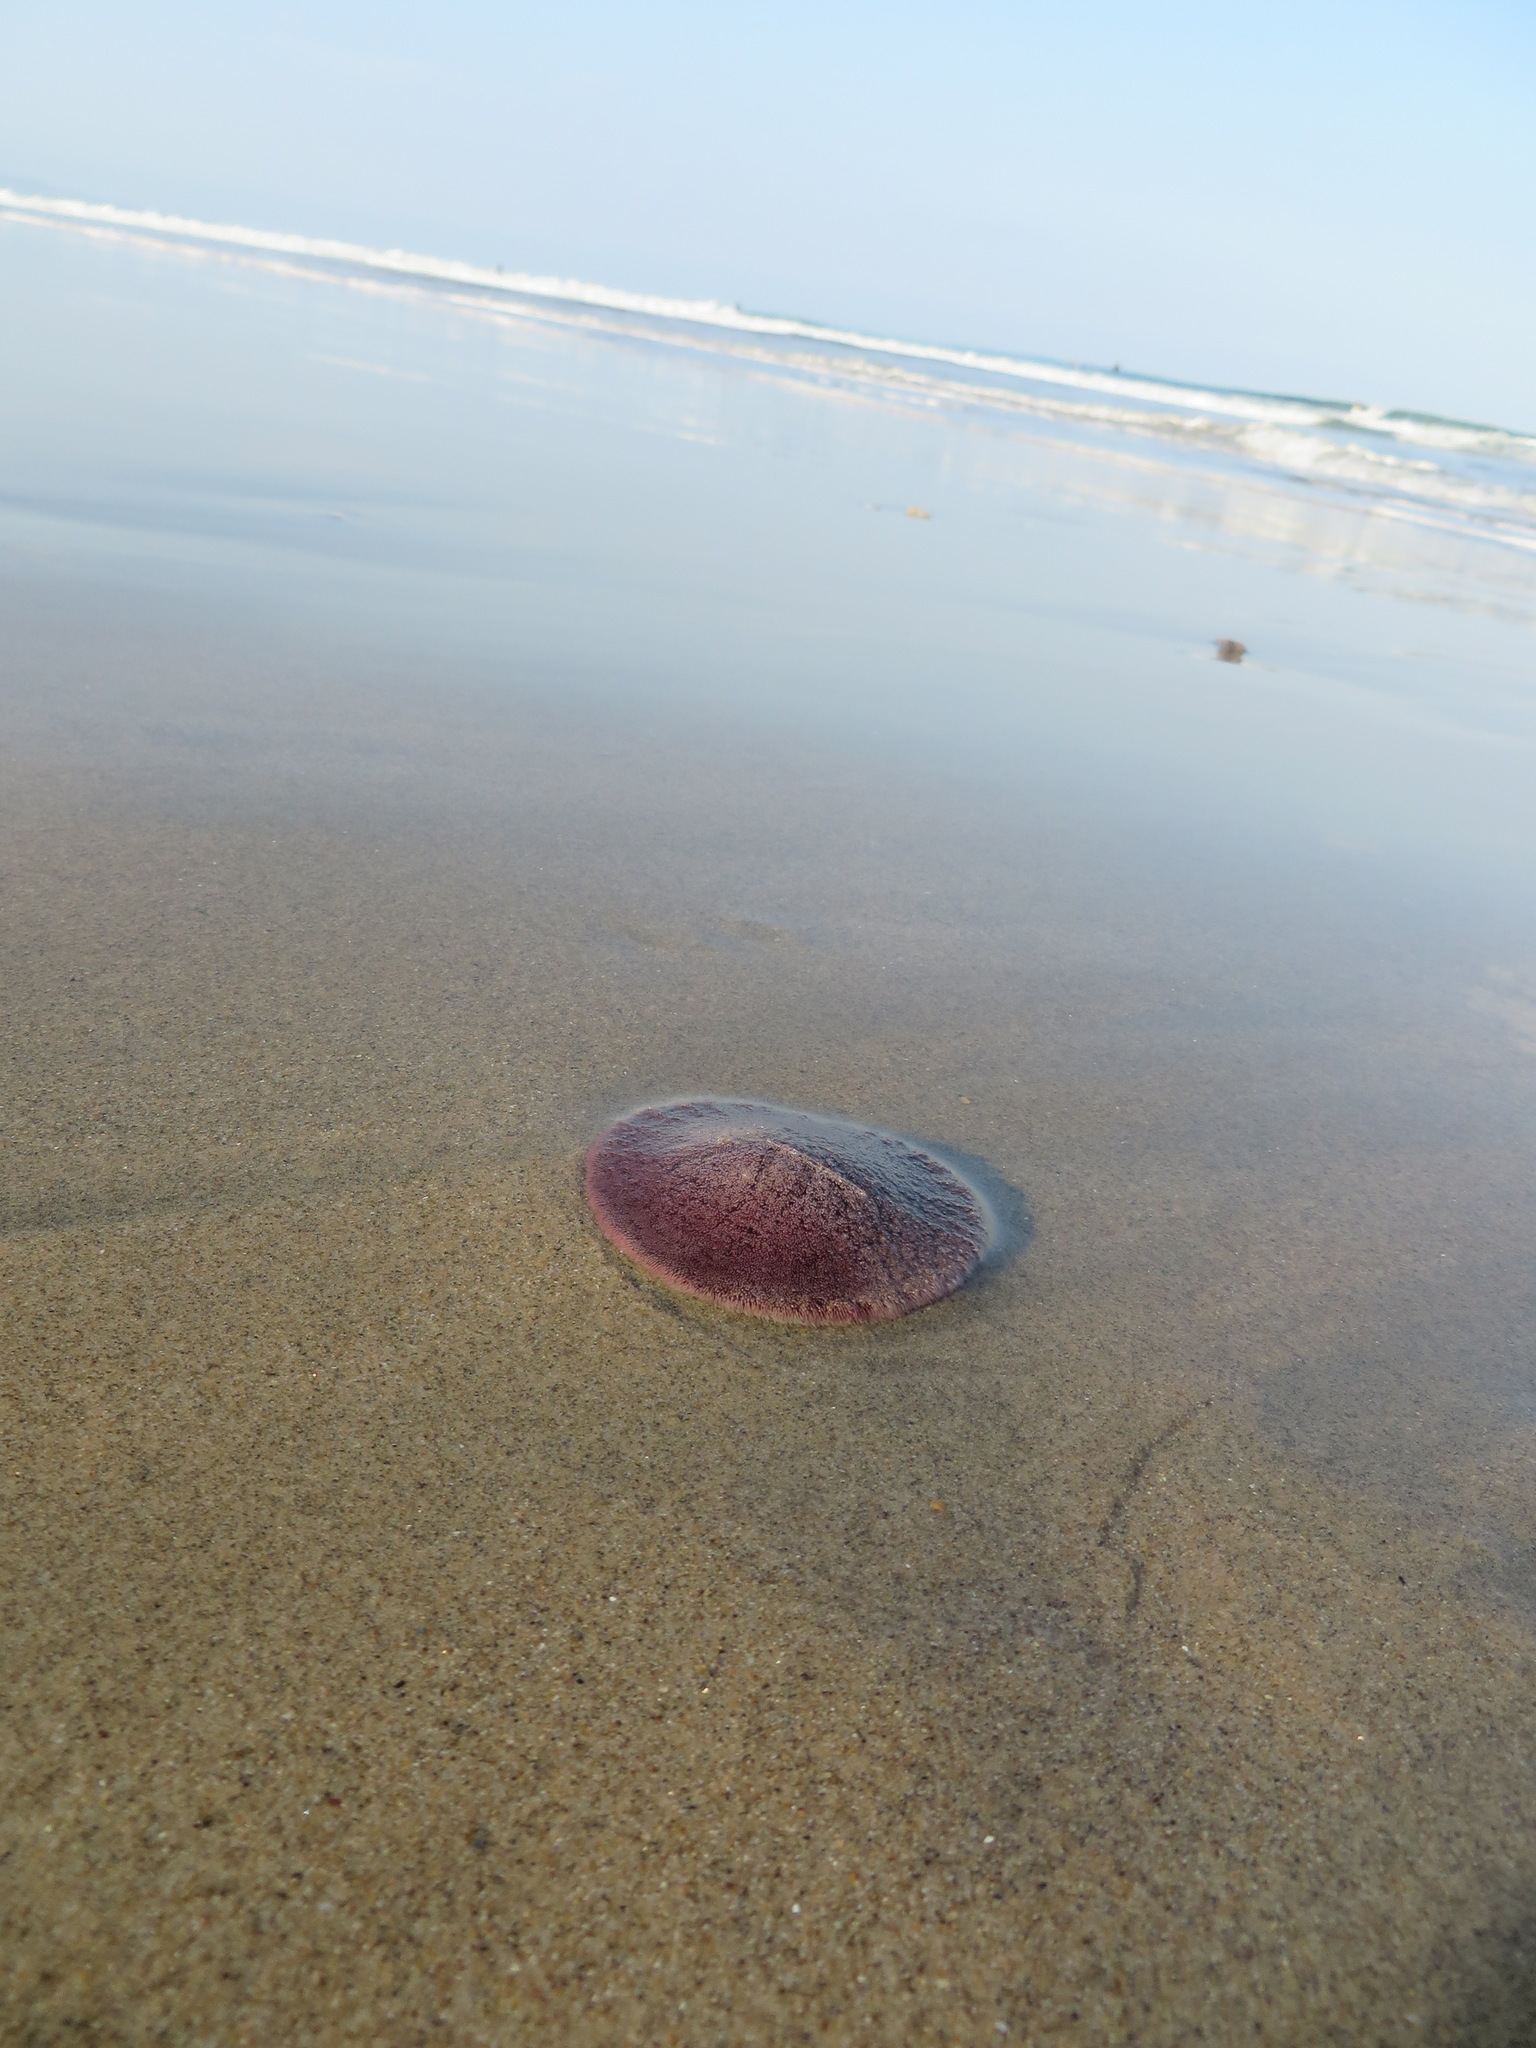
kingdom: Animalia
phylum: Echinodermata
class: Echinoidea
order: Echinolampadacea
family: Dendrasteridae
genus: Dendraster
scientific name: Dendraster excentricus
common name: Eccentric sand dollar sea urchin
